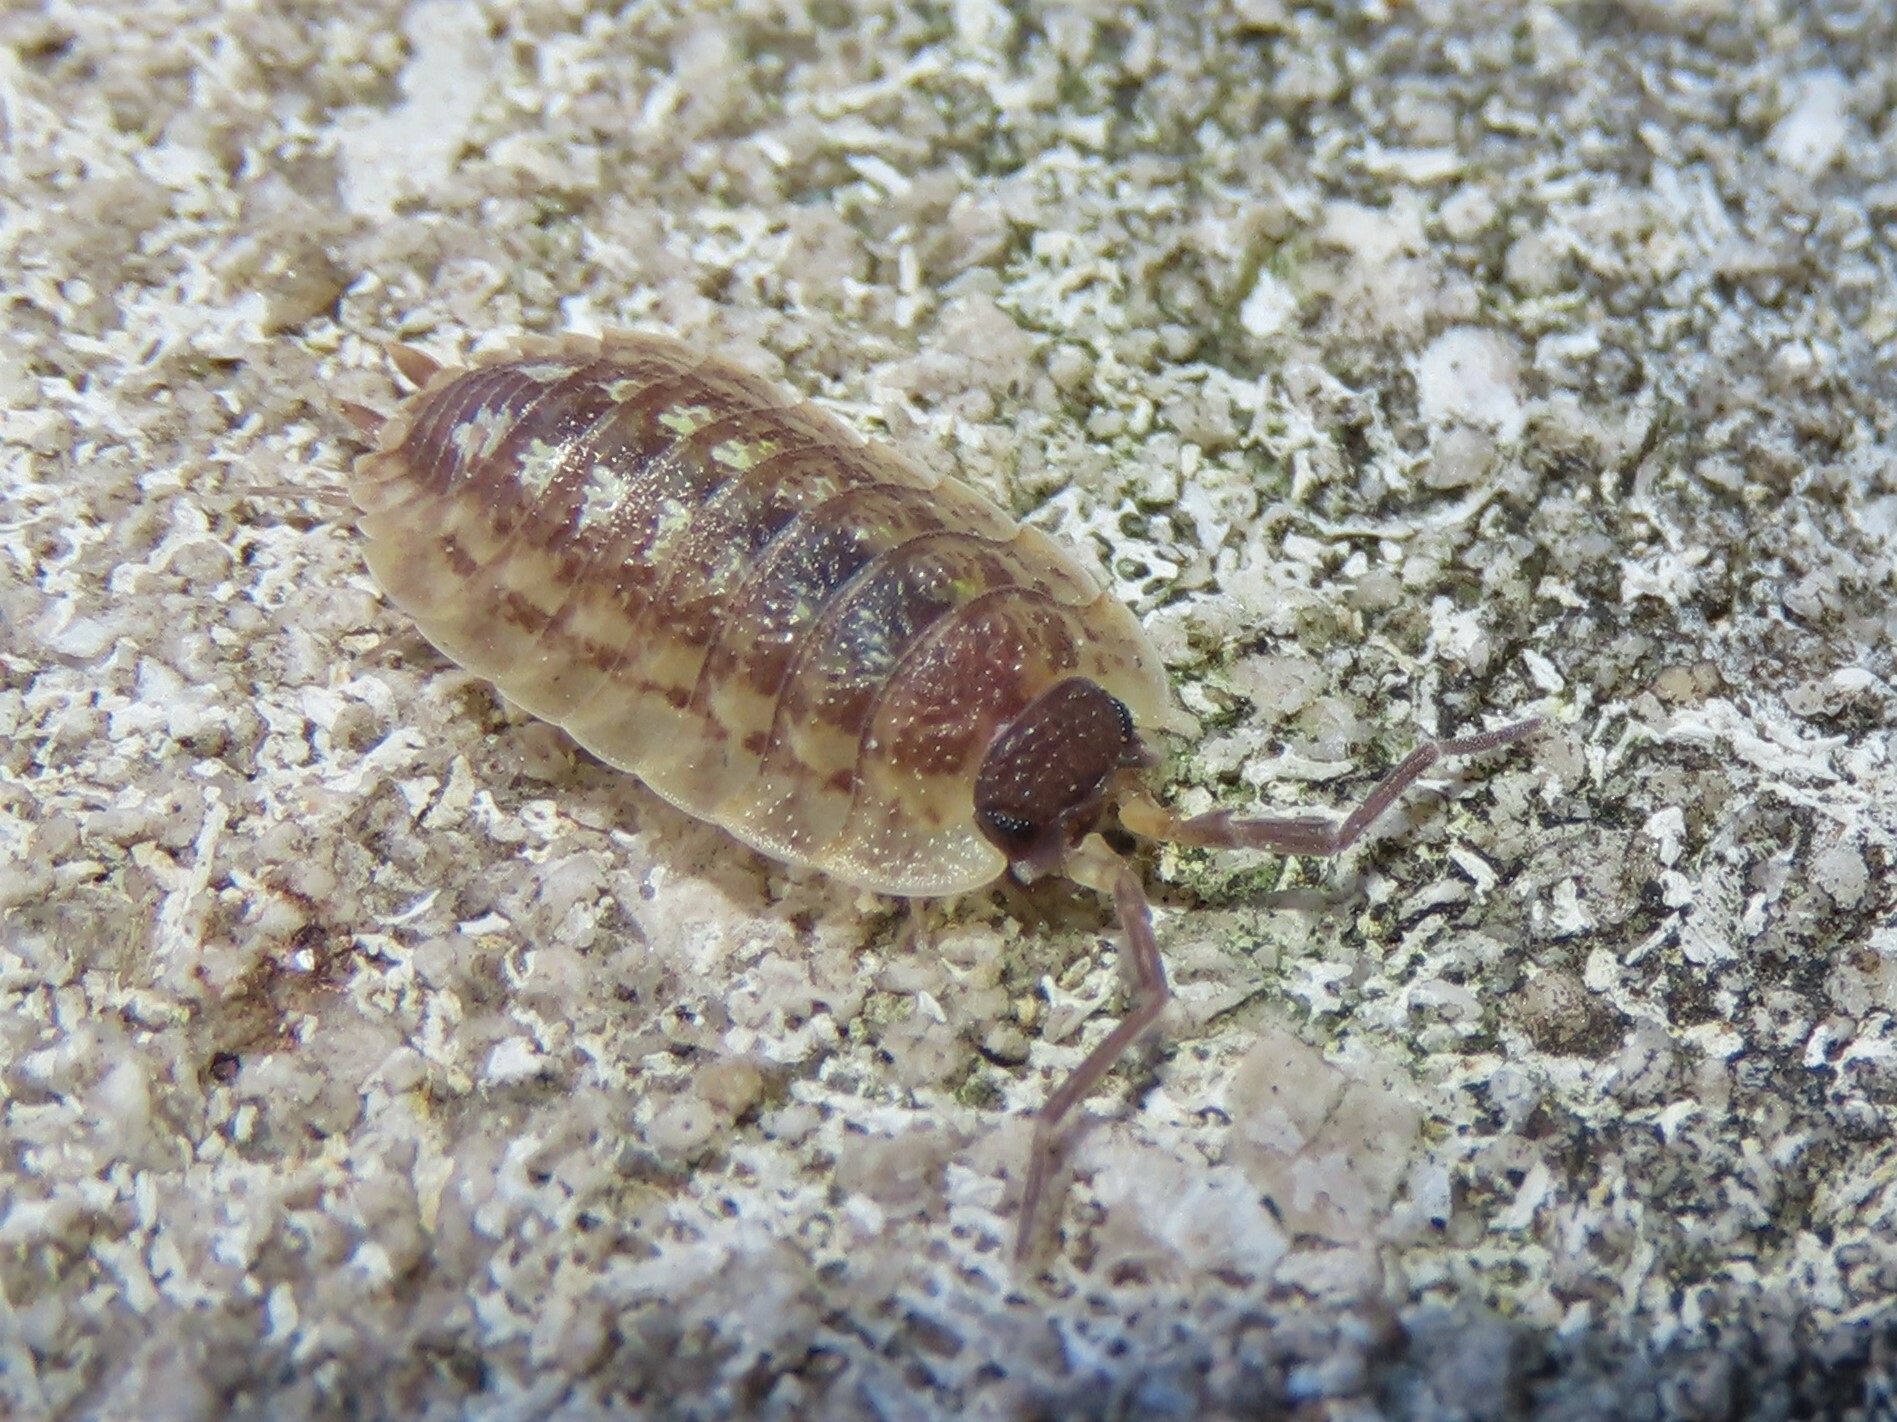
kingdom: Animalia
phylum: Arthropoda
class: Malacostraca
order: Isopoda
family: Porcellionidae
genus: Porcellio
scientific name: Porcellio spinicornis
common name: Painted woodlouse
